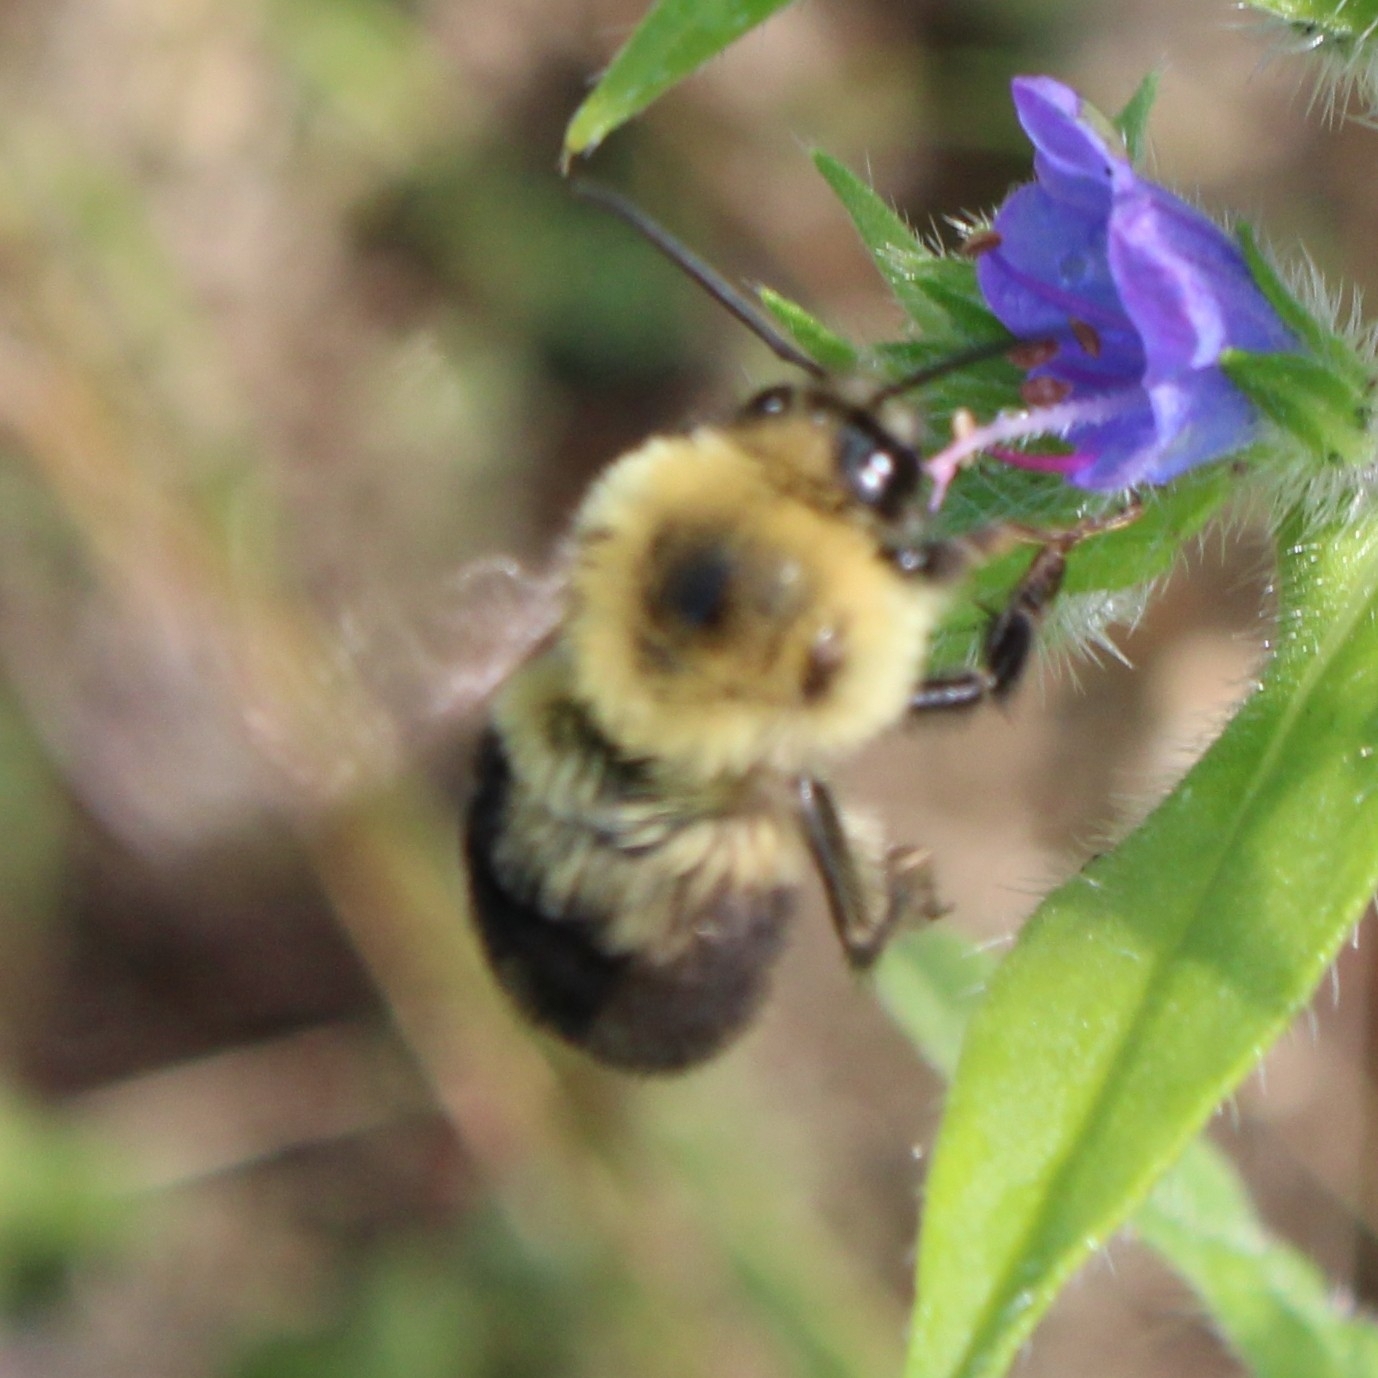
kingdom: Animalia
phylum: Arthropoda
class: Insecta
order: Hymenoptera
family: Apidae
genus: Bombus
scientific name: Bombus bimaculatus
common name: Two-spotted bumble bee
